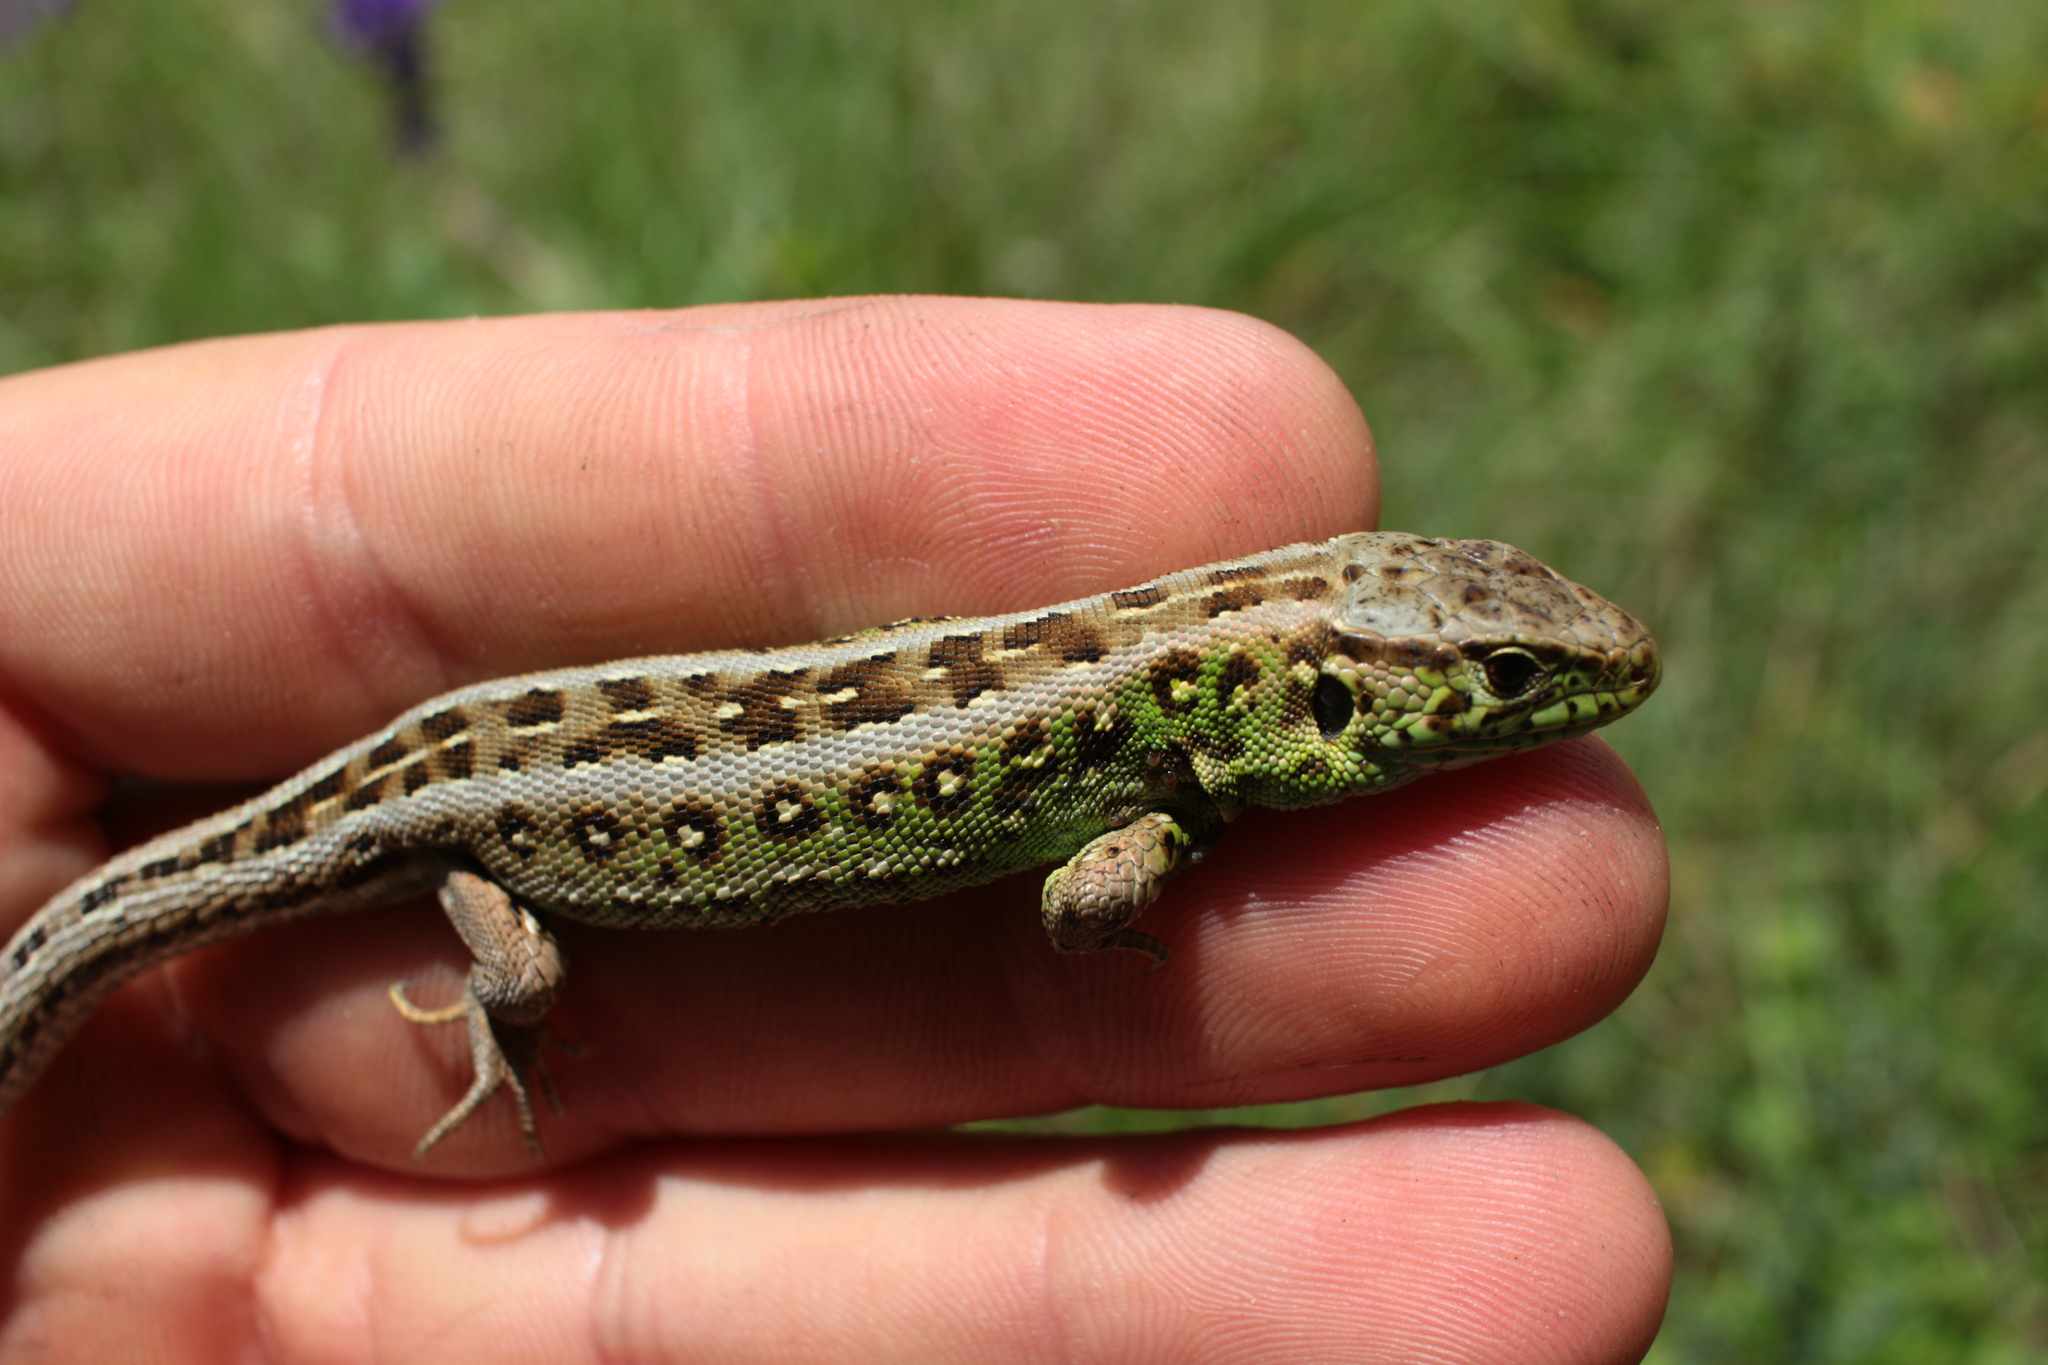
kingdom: Animalia
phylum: Chordata
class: Squamata
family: Lacertidae
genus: Lacerta
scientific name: Lacerta agilis
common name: Sand lizard
